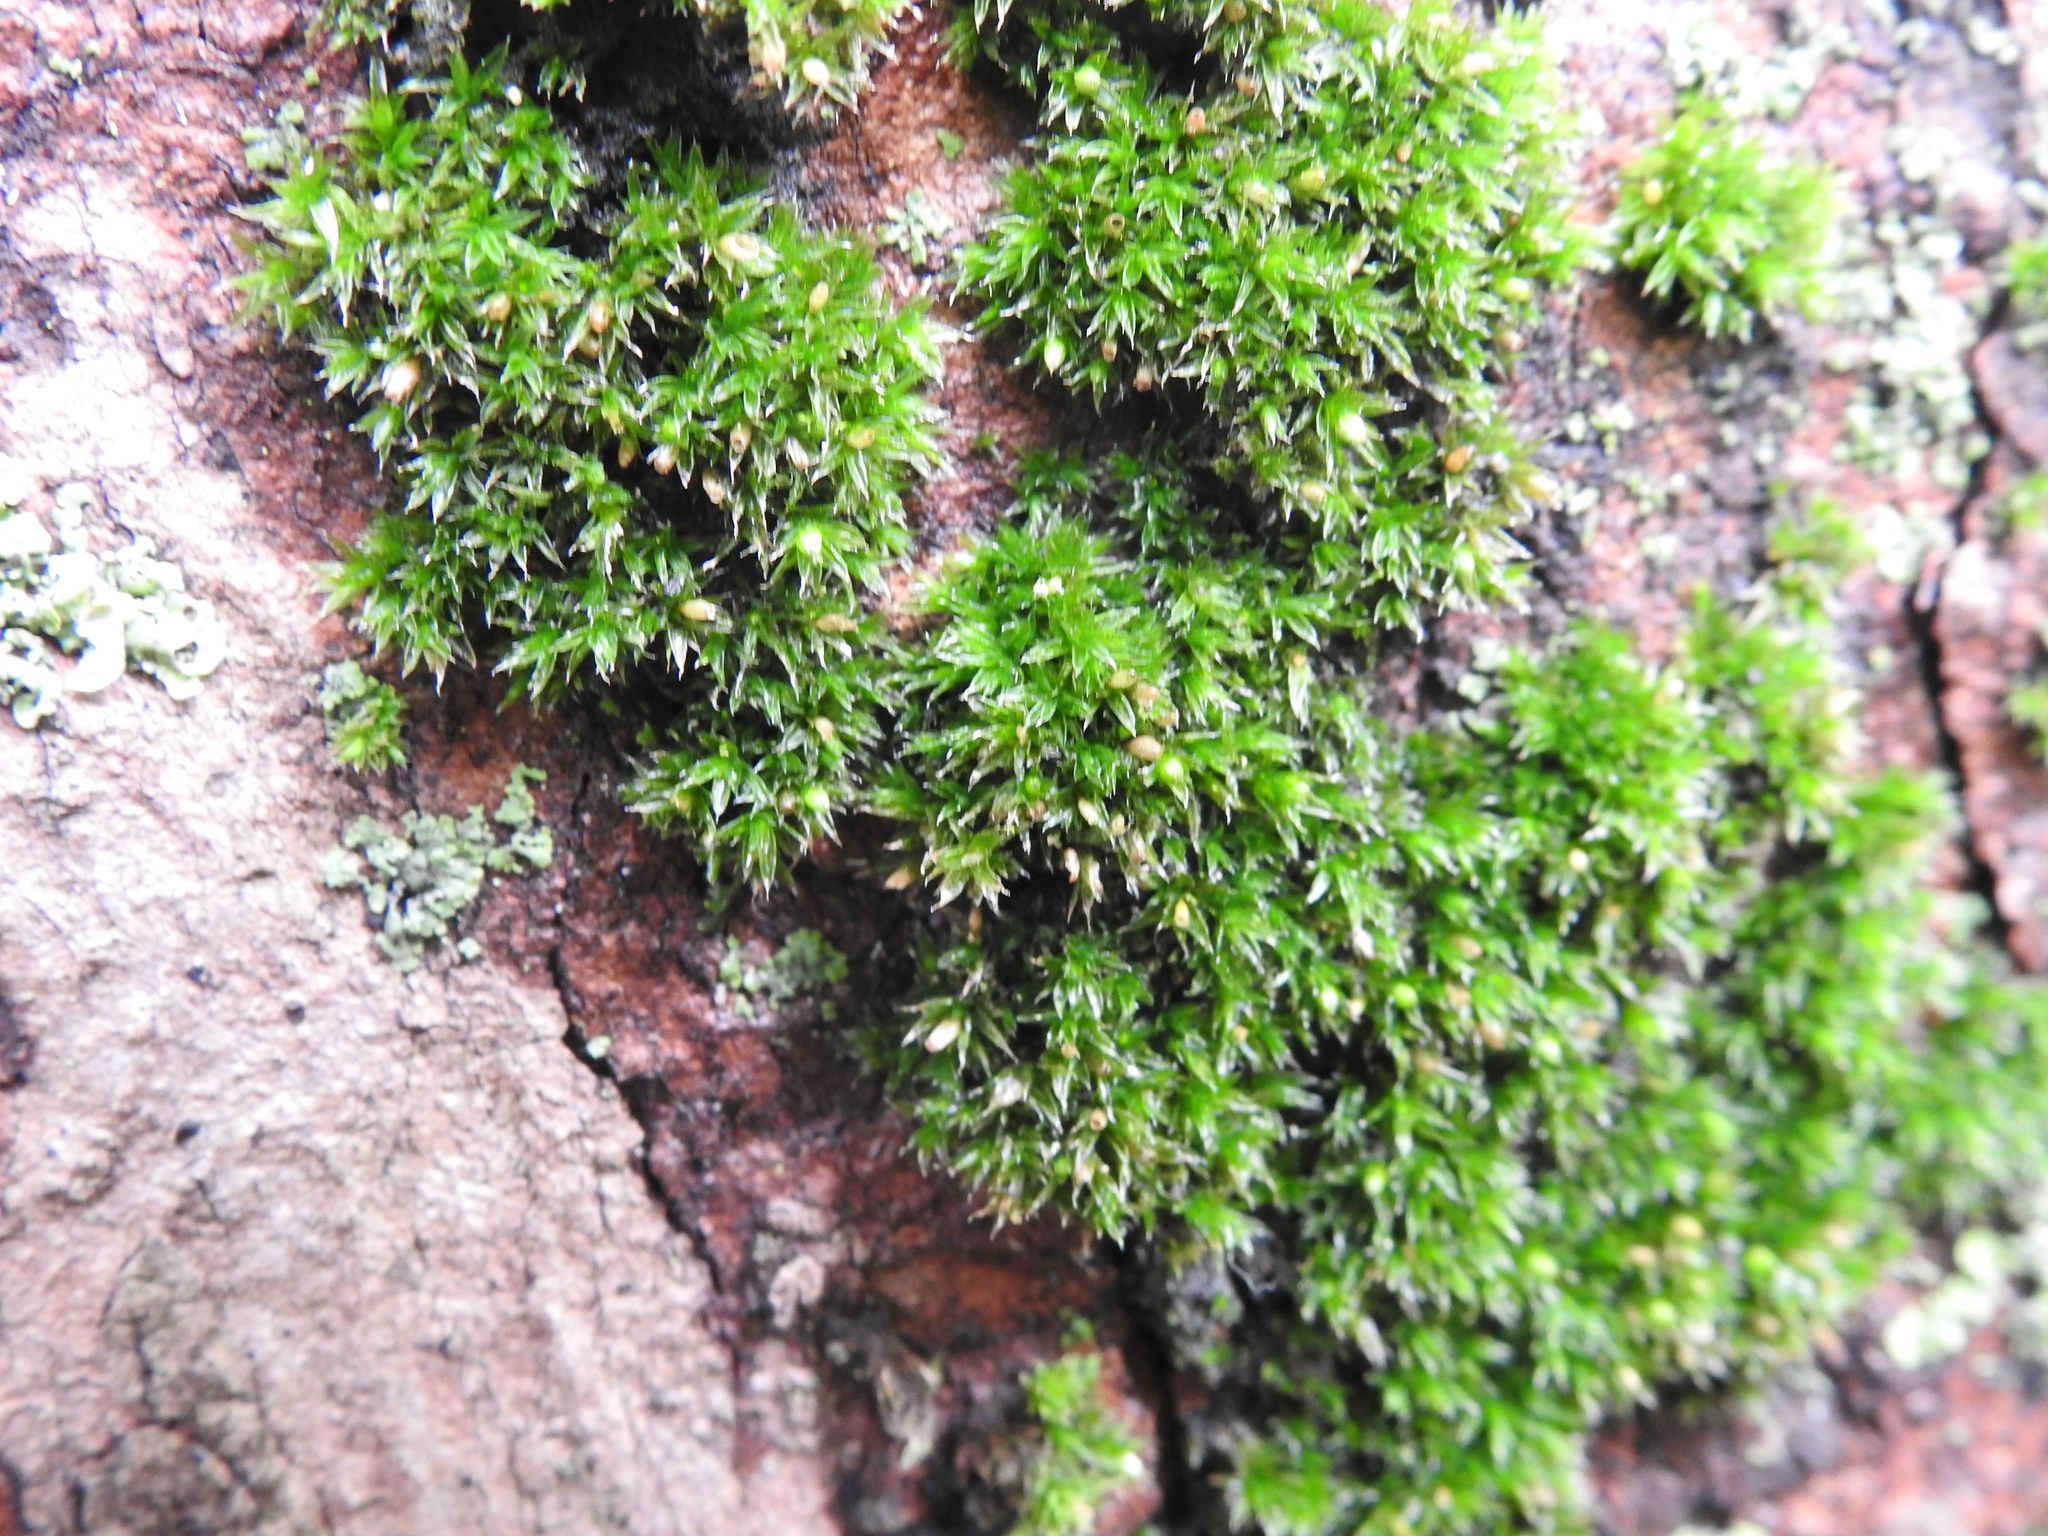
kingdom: Plantae
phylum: Bryophyta
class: Bryopsida
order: Orthotrichales
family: Orthotrichaceae
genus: Orthotrichum
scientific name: Orthotrichum diaphanum
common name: White-tipped bristle-moss
